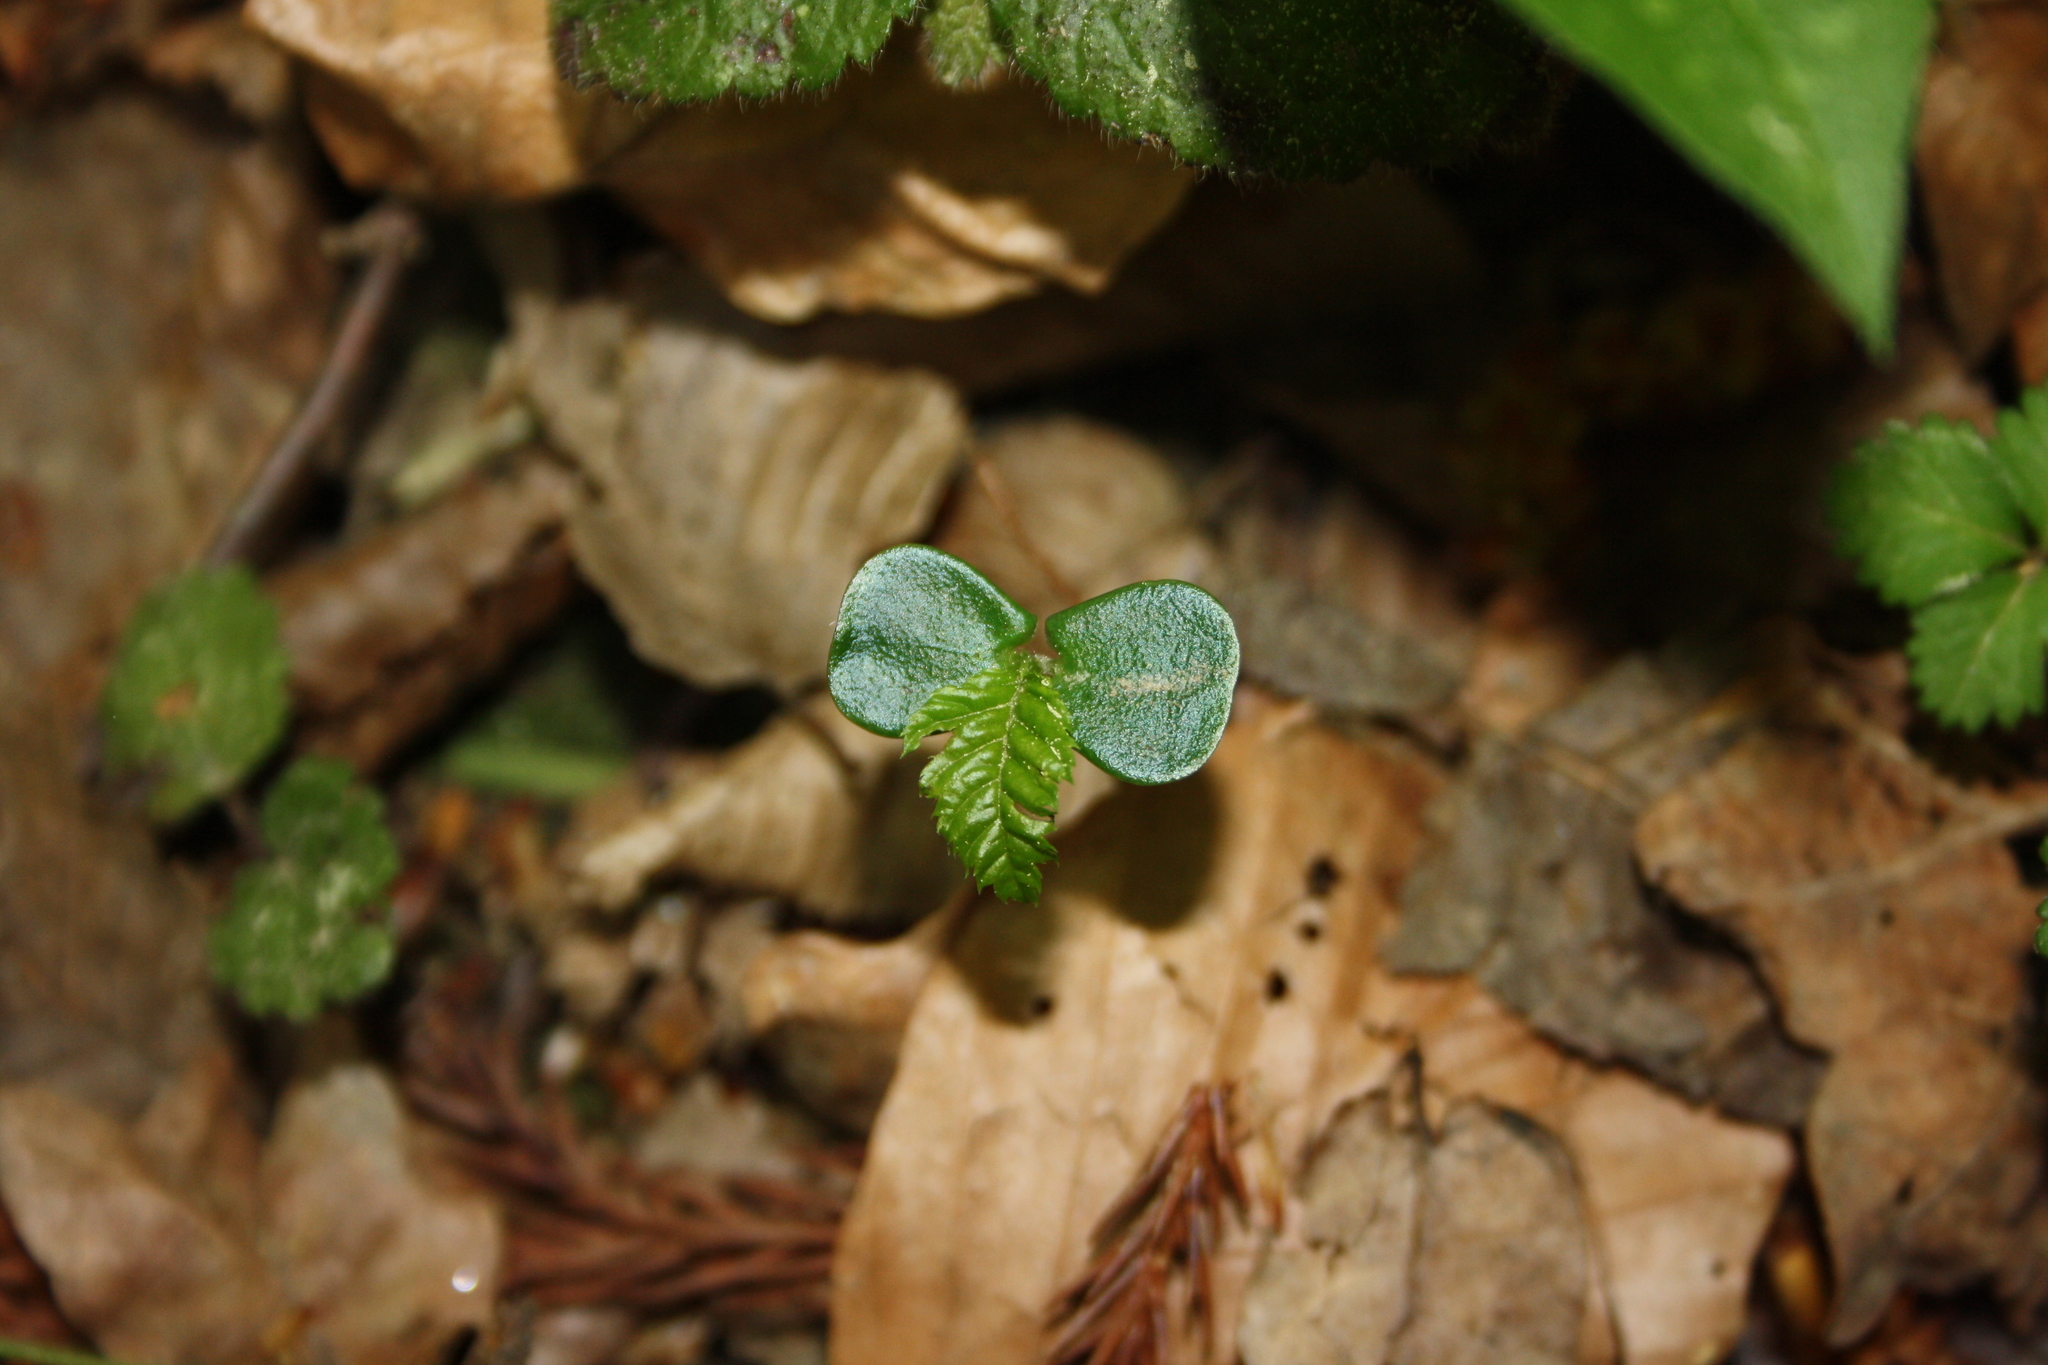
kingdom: Plantae
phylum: Tracheophyta
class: Magnoliopsida
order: Fagales
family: Betulaceae
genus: Carpinus
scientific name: Carpinus betulus
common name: Hornbeam
